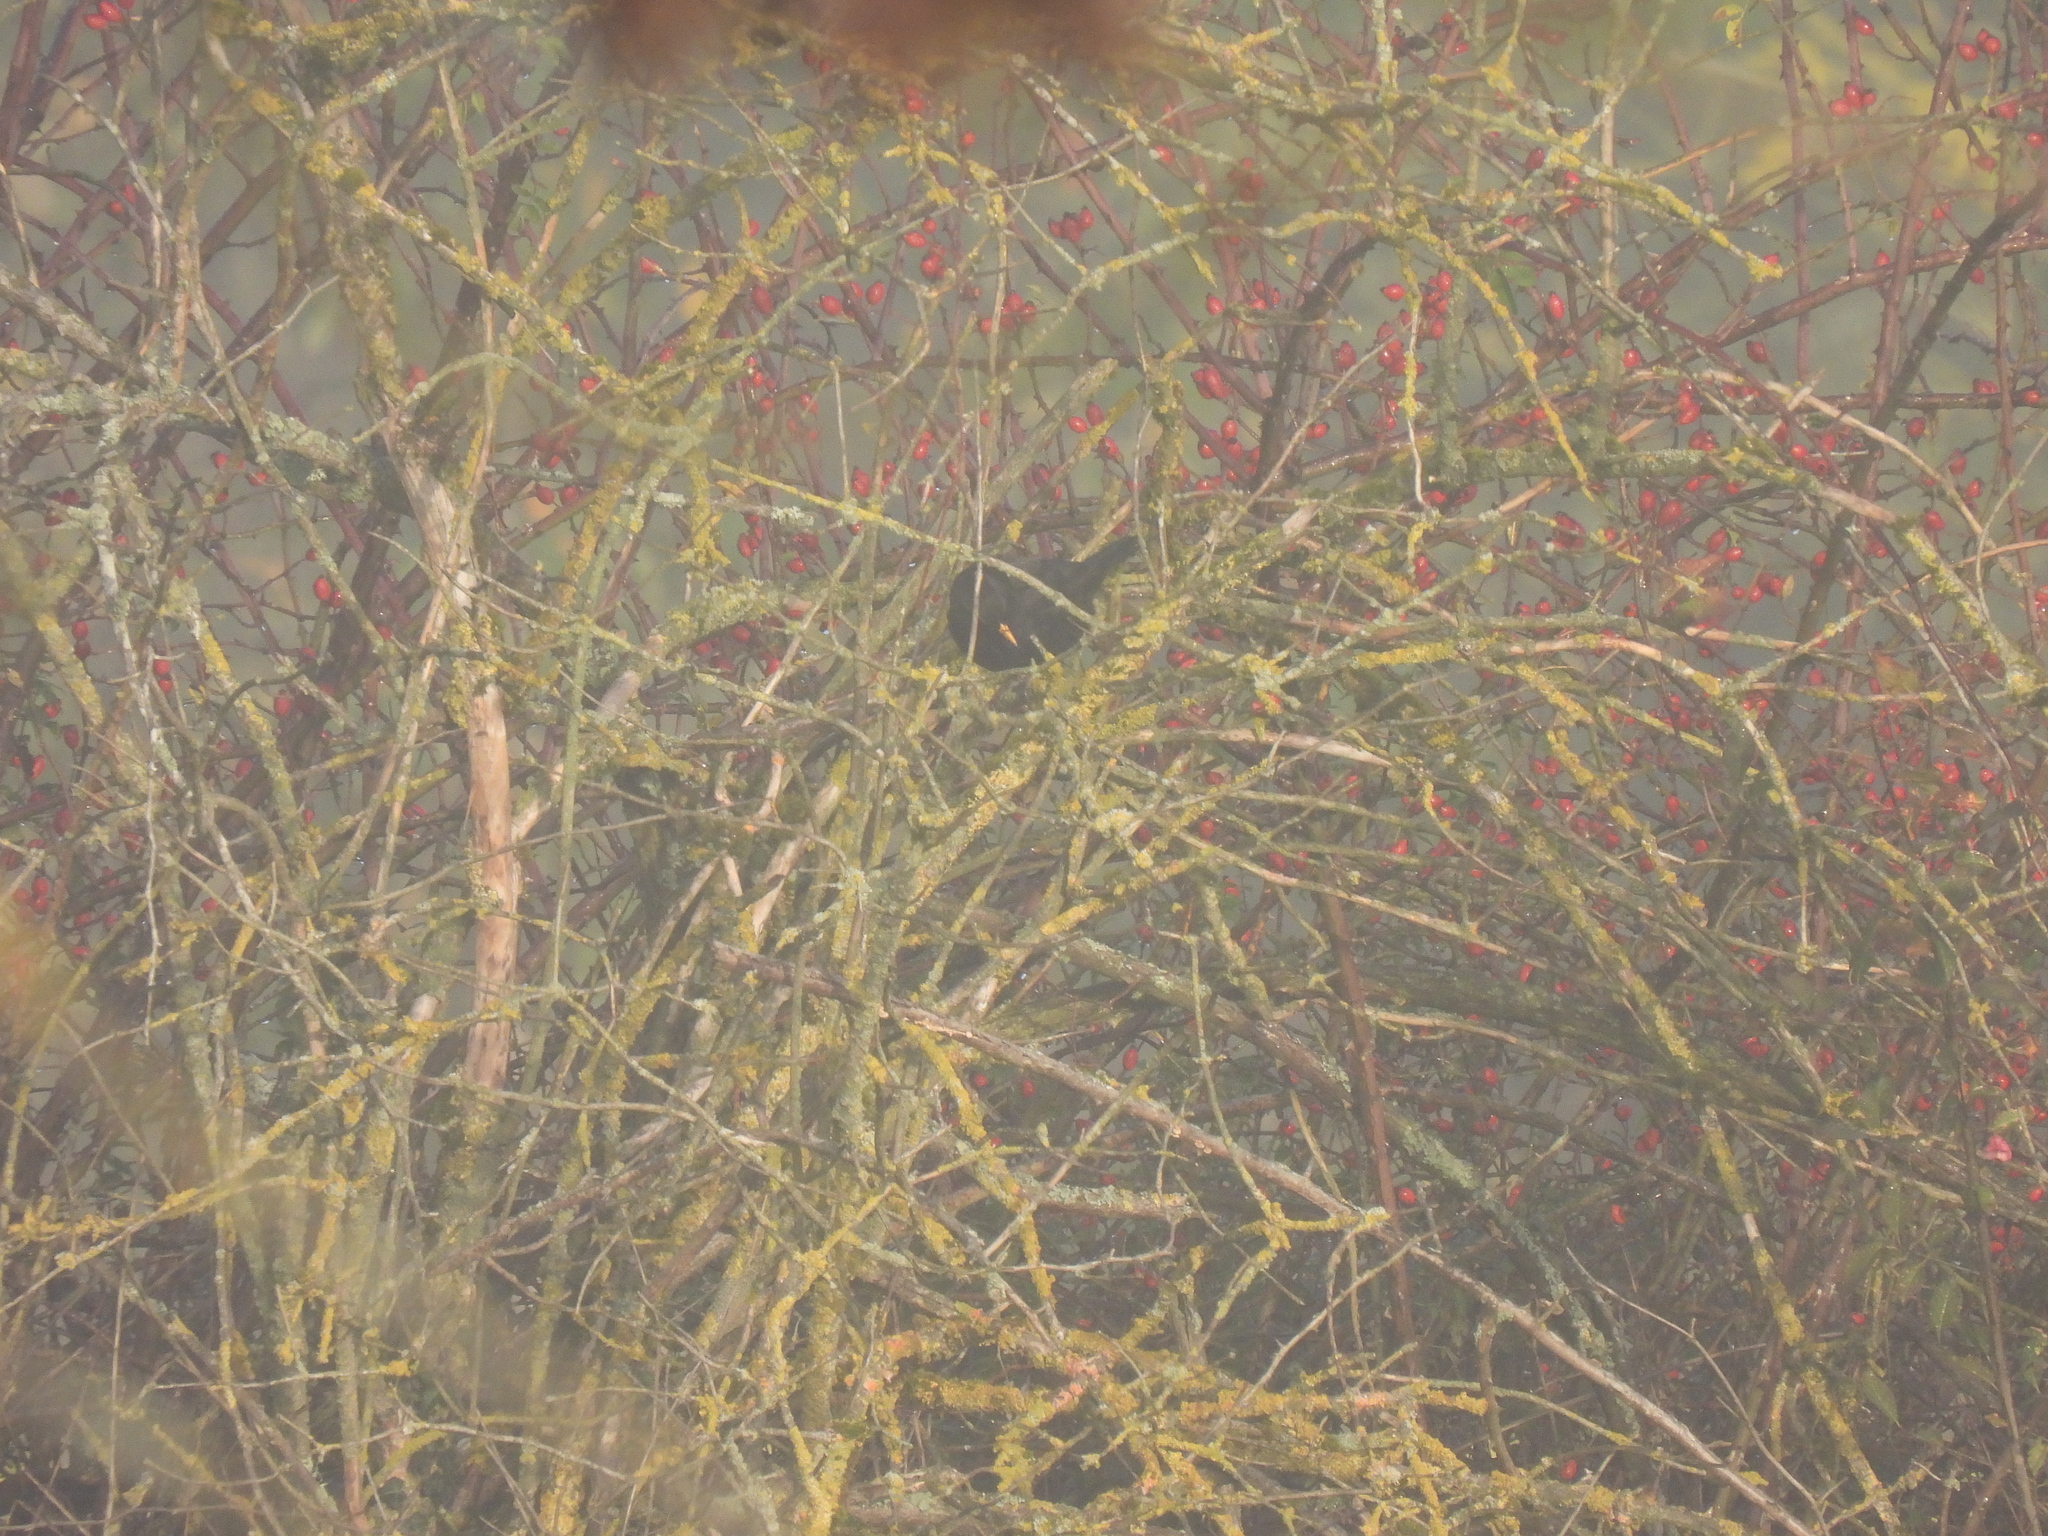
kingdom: Animalia
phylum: Chordata
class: Aves
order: Passeriformes
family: Turdidae
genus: Turdus
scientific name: Turdus merula
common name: Common blackbird
